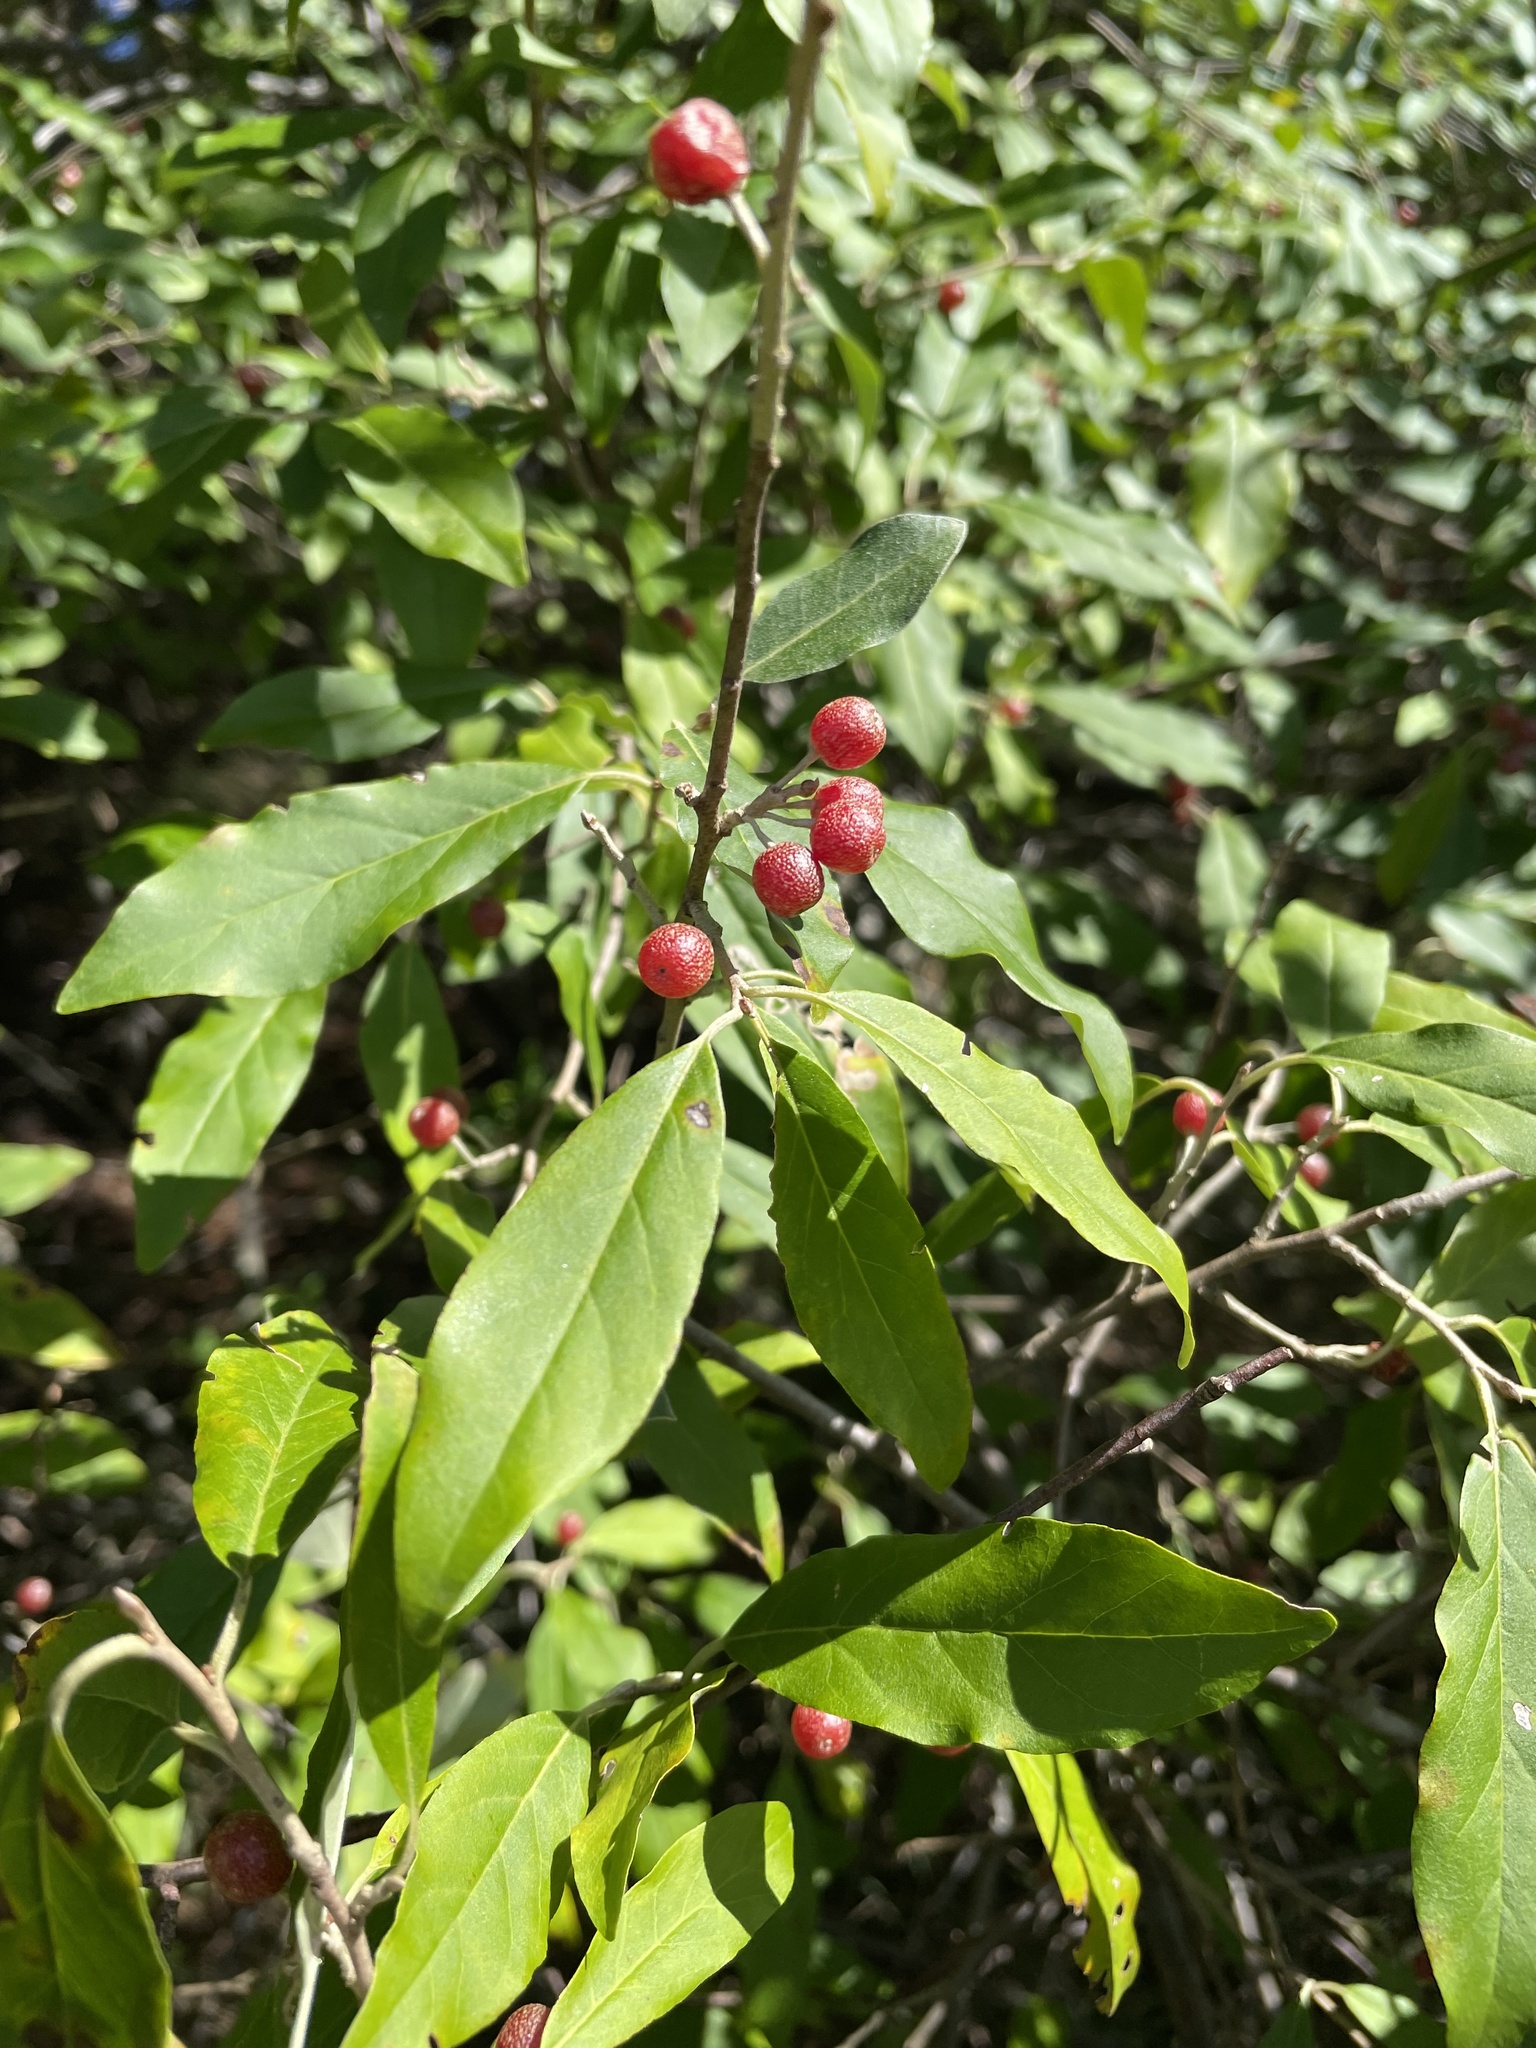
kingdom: Plantae
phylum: Tracheophyta
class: Magnoliopsida
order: Rosales
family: Elaeagnaceae
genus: Elaeagnus
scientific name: Elaeagnus umbellata
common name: Autumn olive
